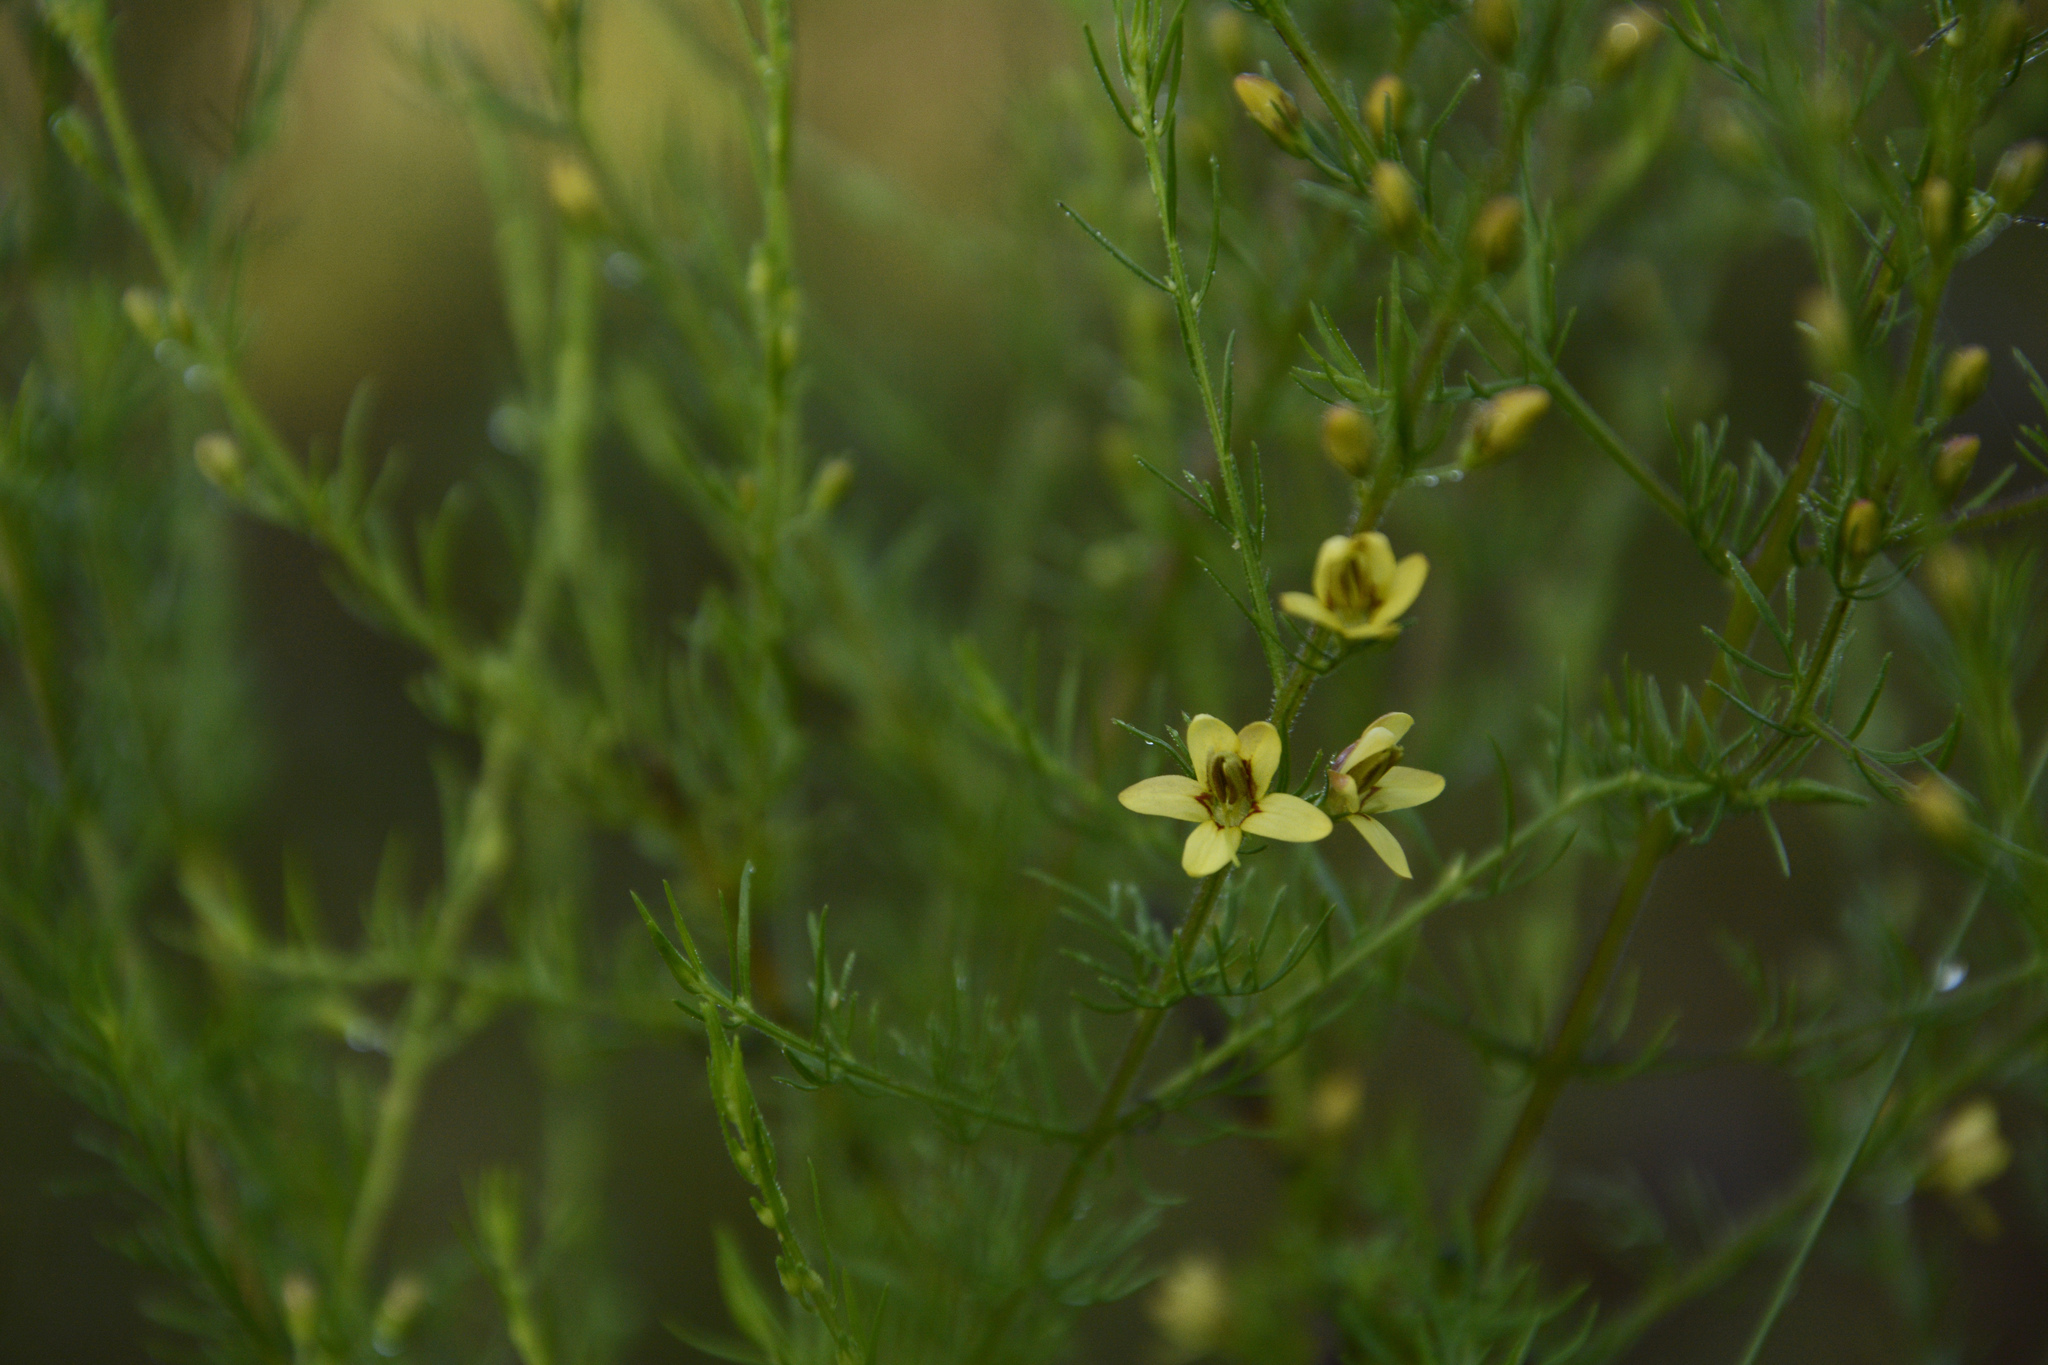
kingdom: Plantae
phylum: Tracheophyta
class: Magnoliopsida
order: Lamiales
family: Orobanchaceae
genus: Seymeria
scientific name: Seymeria cassioides
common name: Yaupon black-senna
